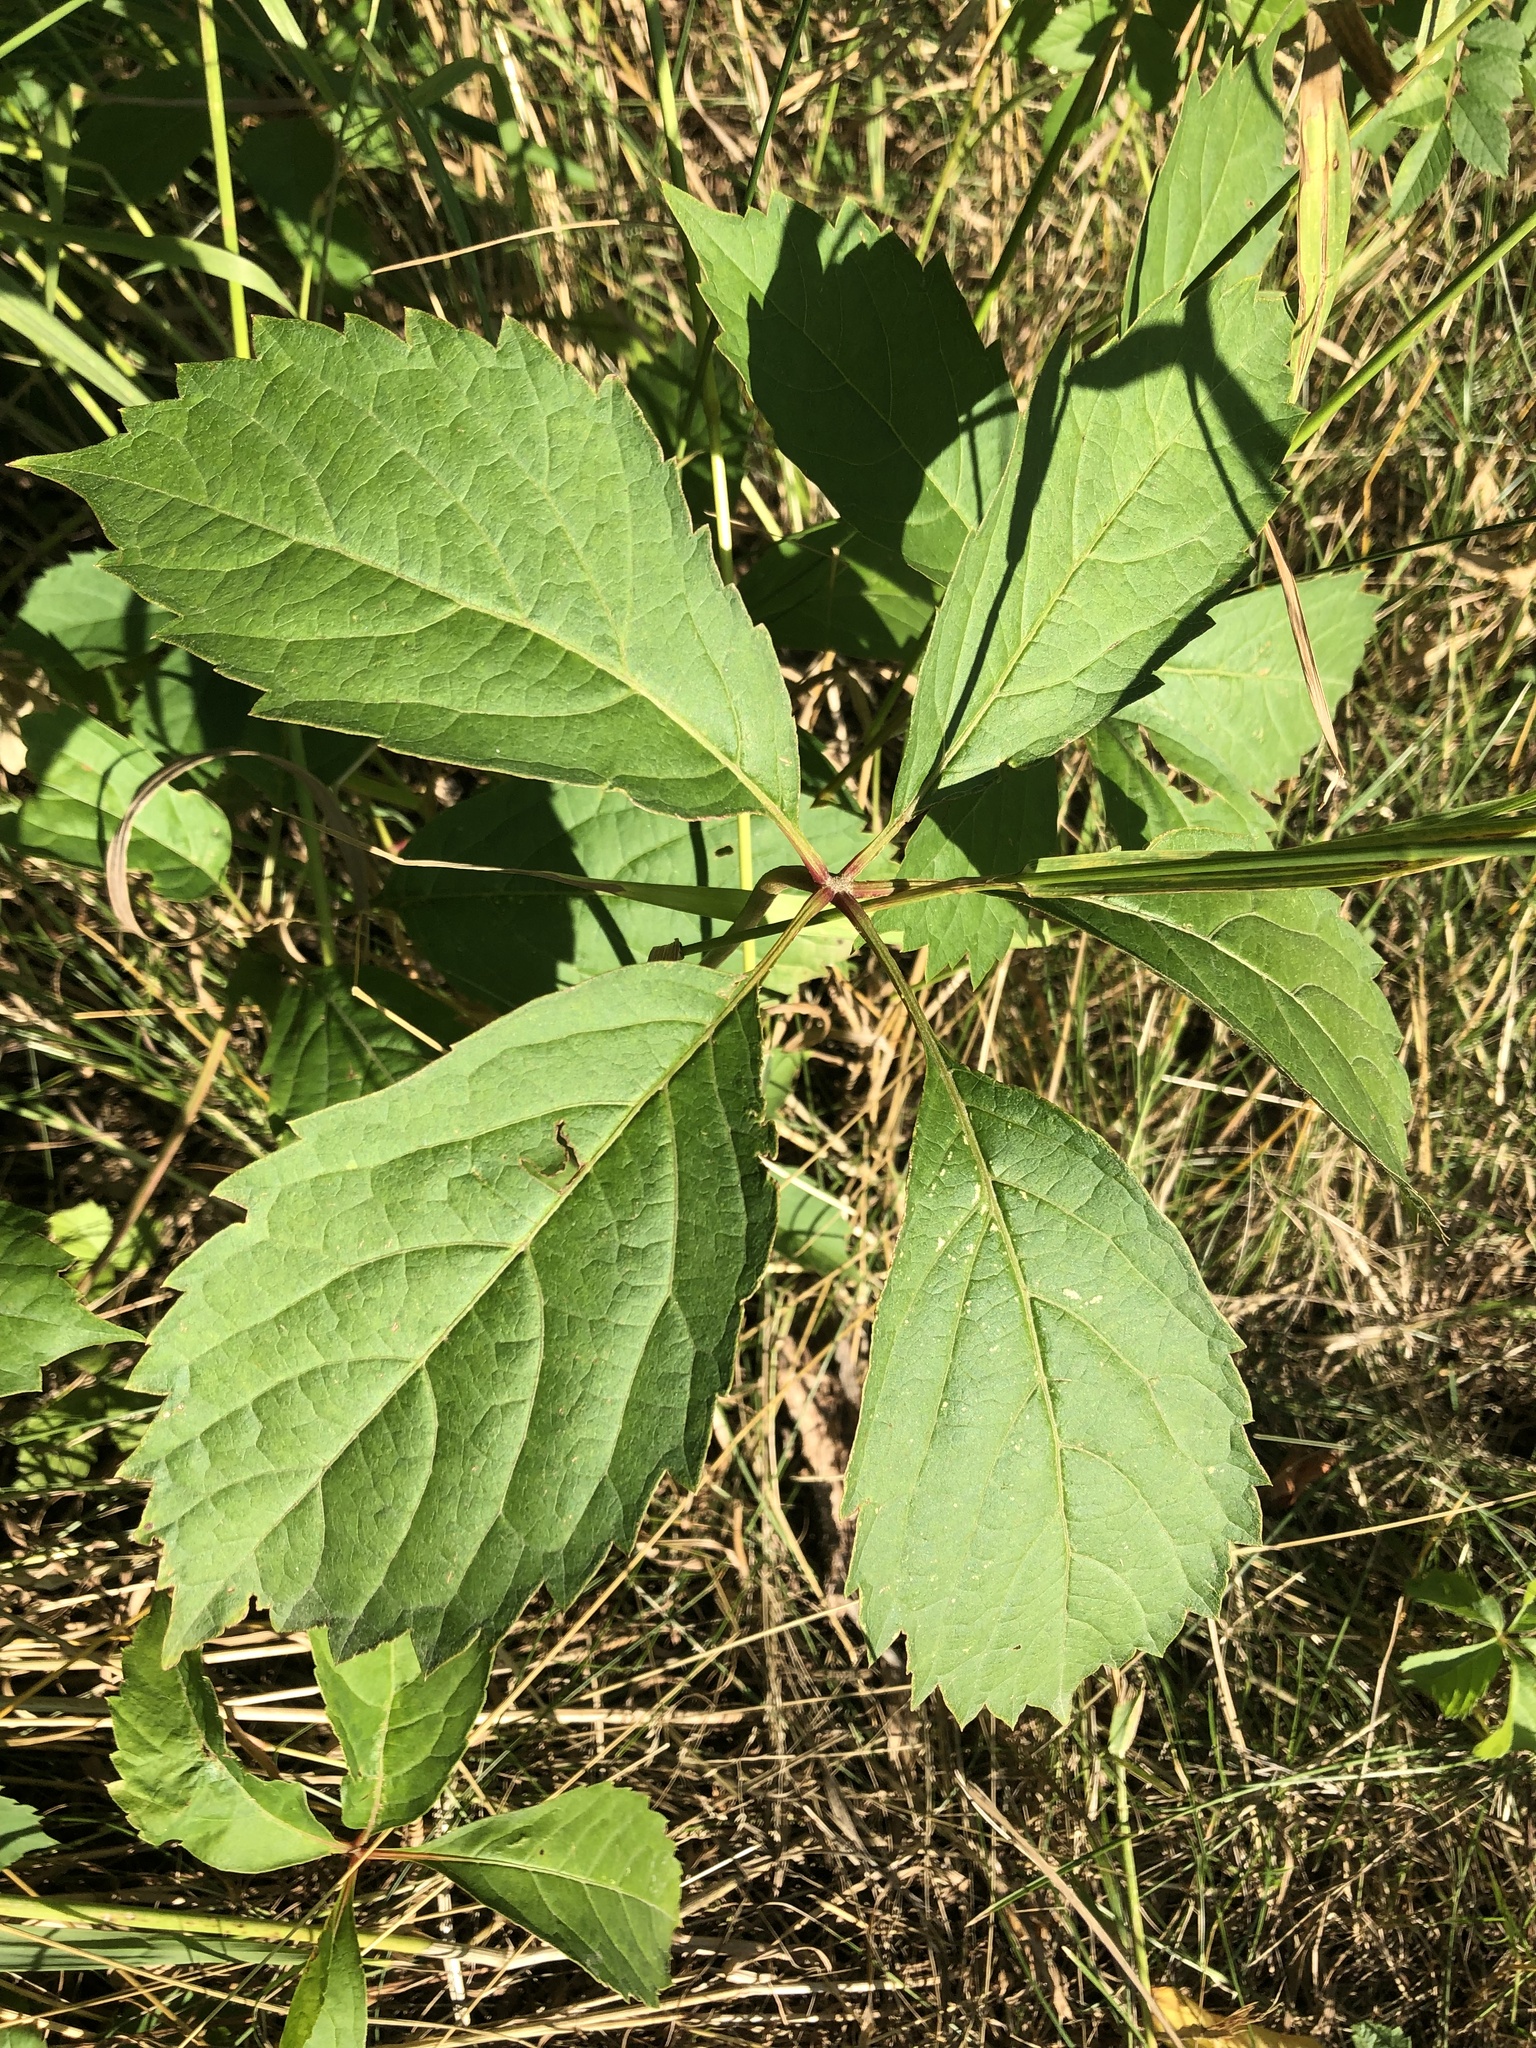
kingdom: Plantae
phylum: Tracheophyta
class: Magnoliopsida
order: Vitales
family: Vitaceae
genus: Parthenocissus
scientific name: Parthenocissus inserta
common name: False virginia-creeper
